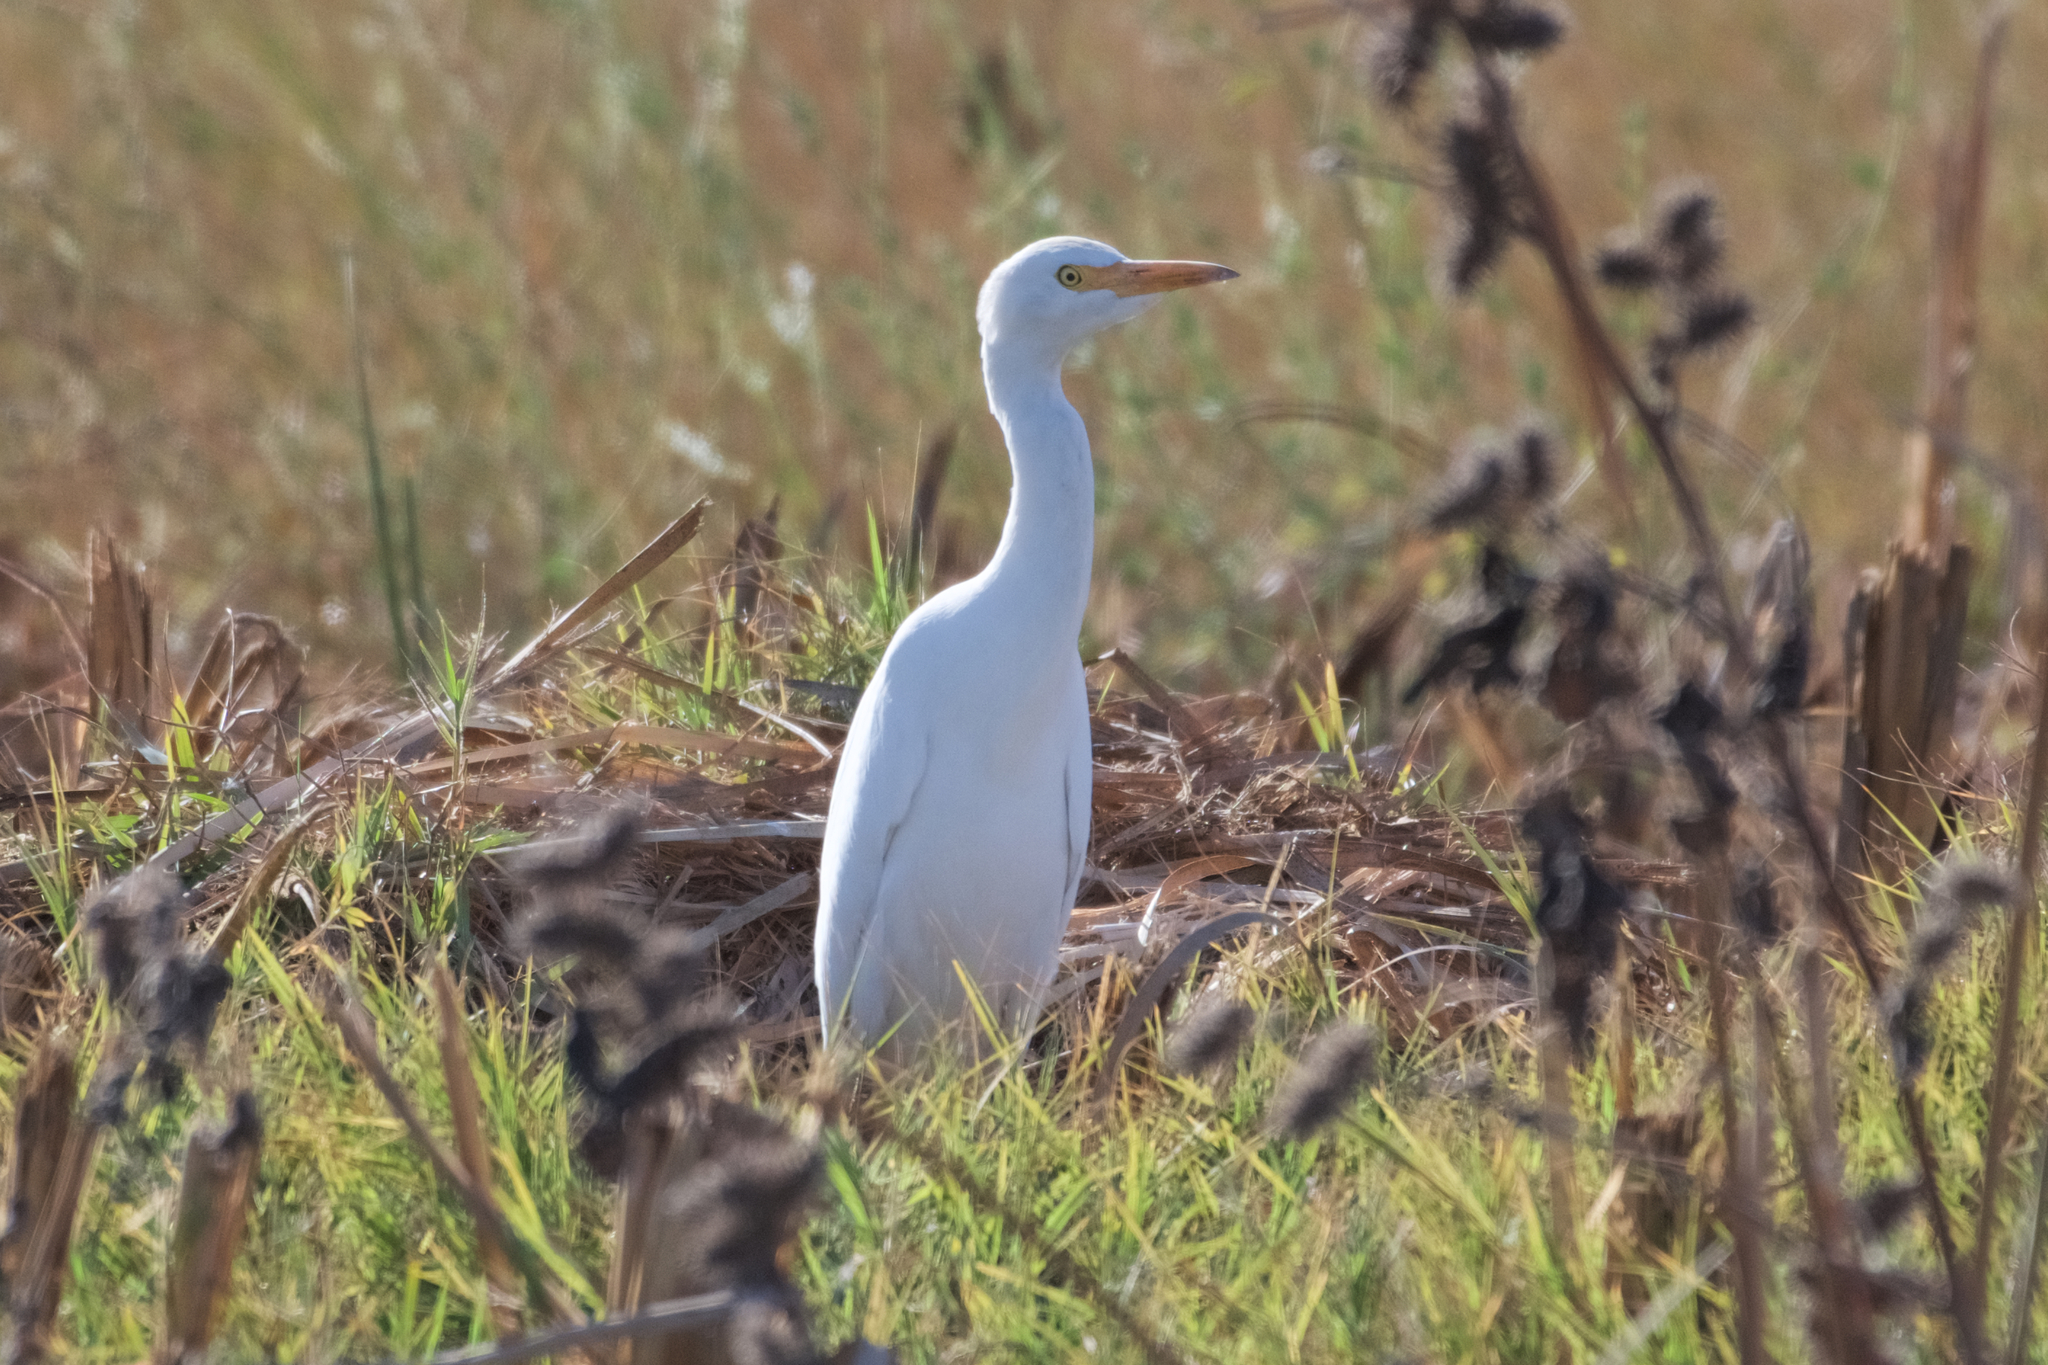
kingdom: Animalia
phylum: Chordata
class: Aves
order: Pelecaniformes
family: Ardeidae
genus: Bubulcus
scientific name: Bubulcus ibis
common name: Cattle egret
